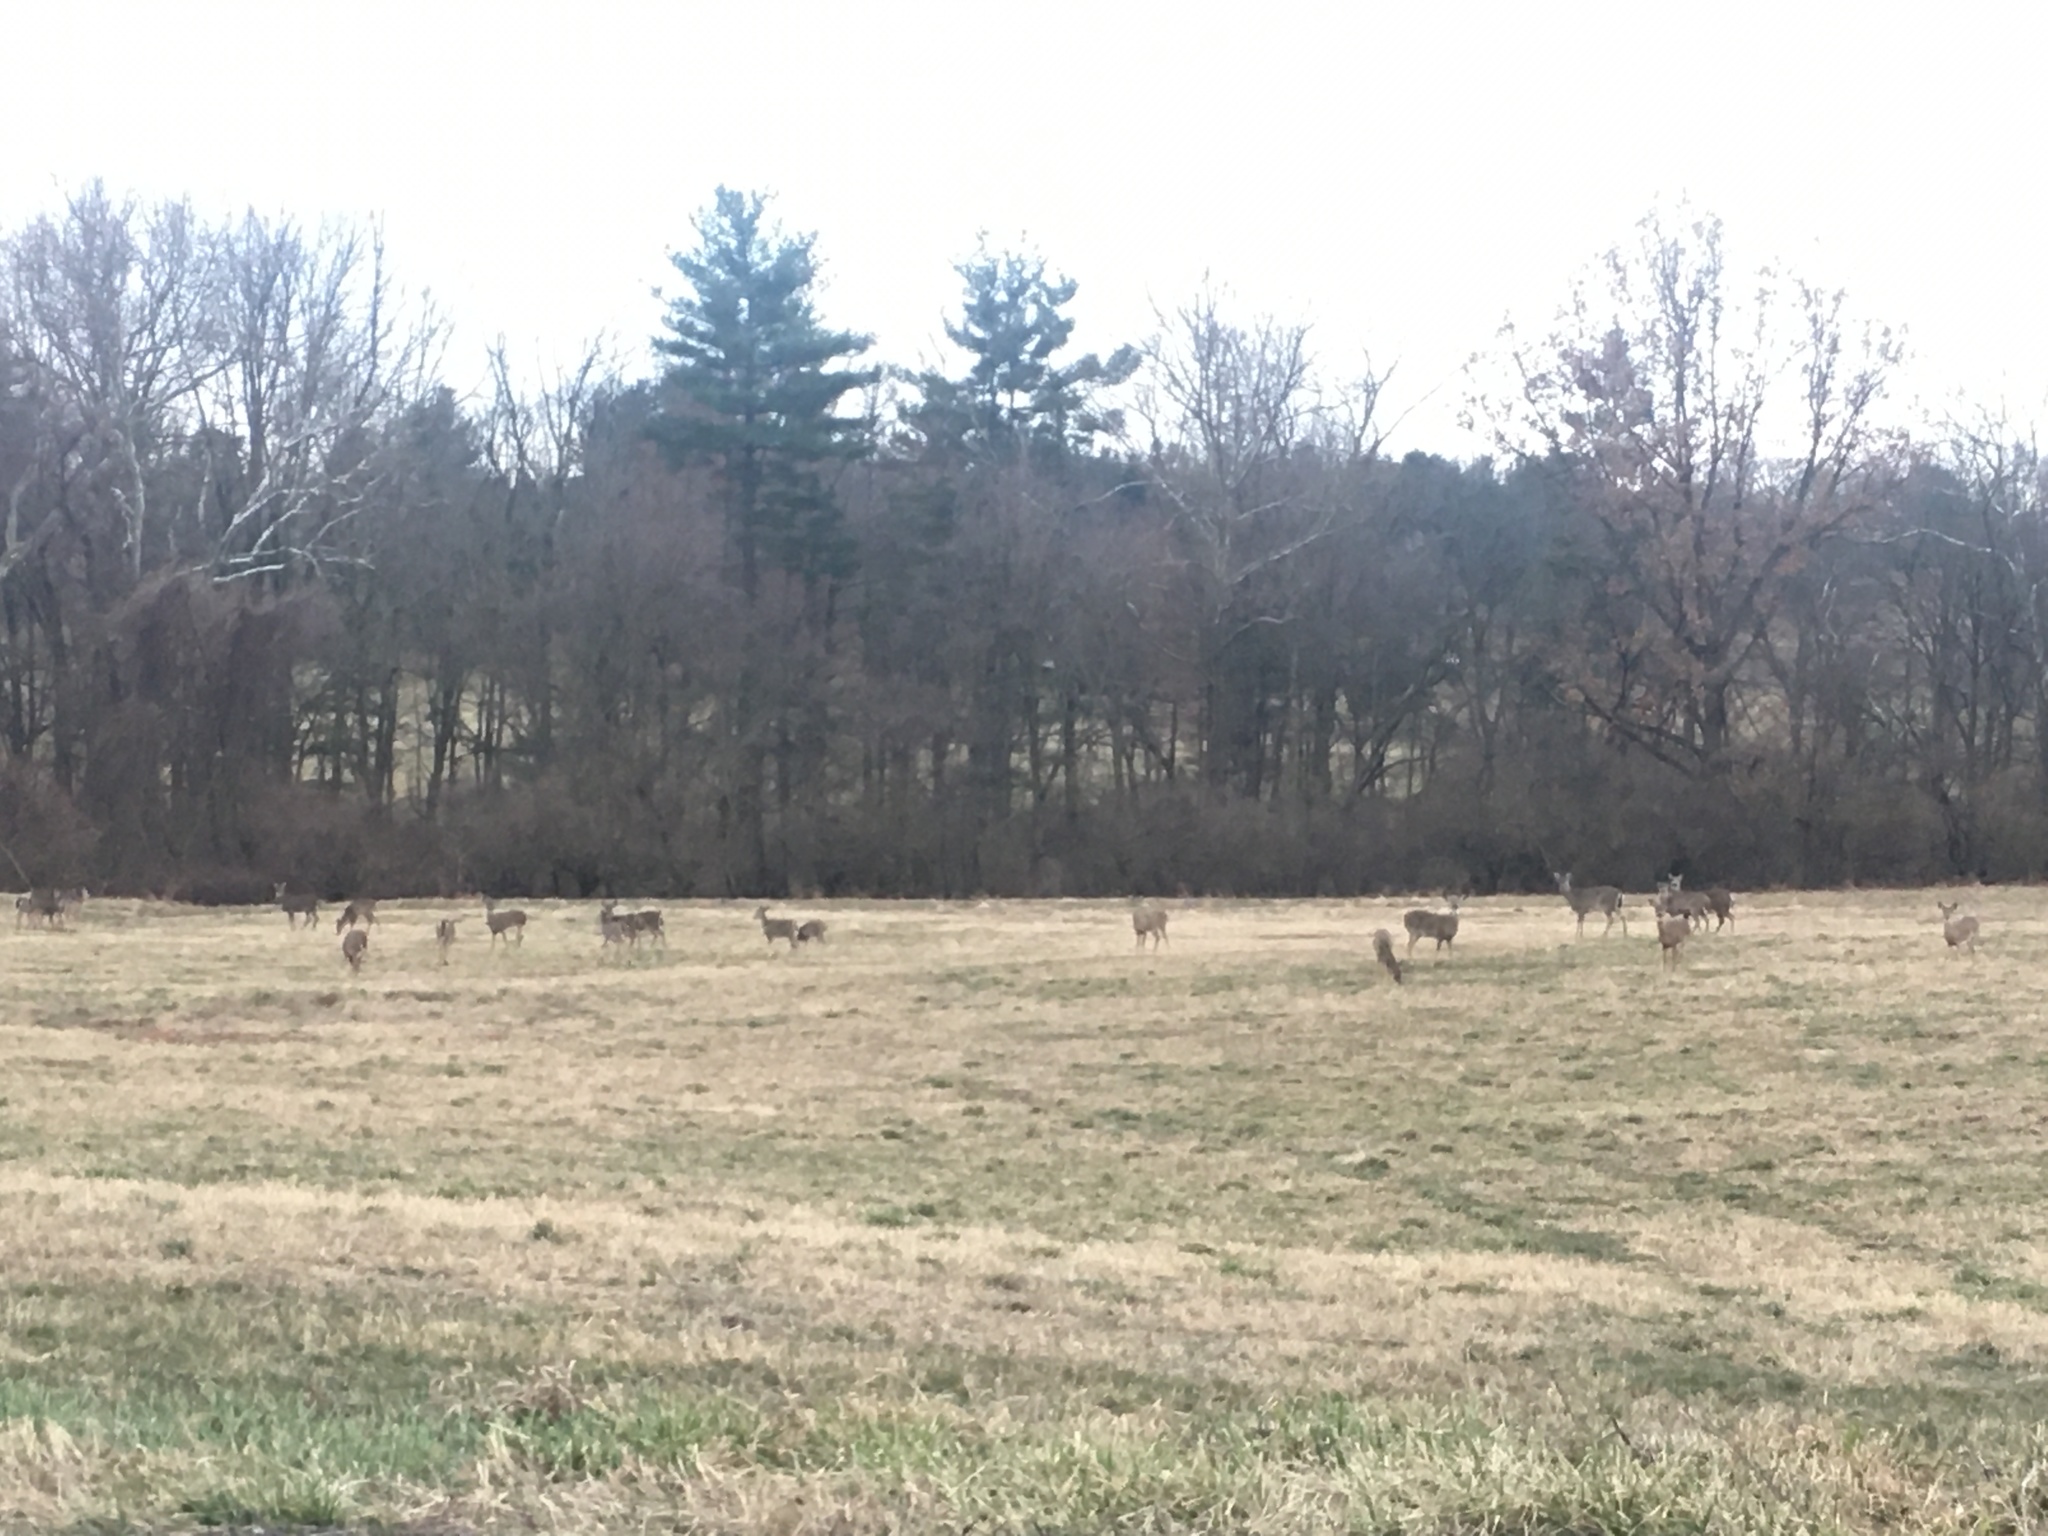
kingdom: Animalia
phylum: Chordata
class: Mammalia
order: Artiodactyla
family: Cervidae
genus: Odocoileus
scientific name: Odocoileus virginianus
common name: White-tailed deer
